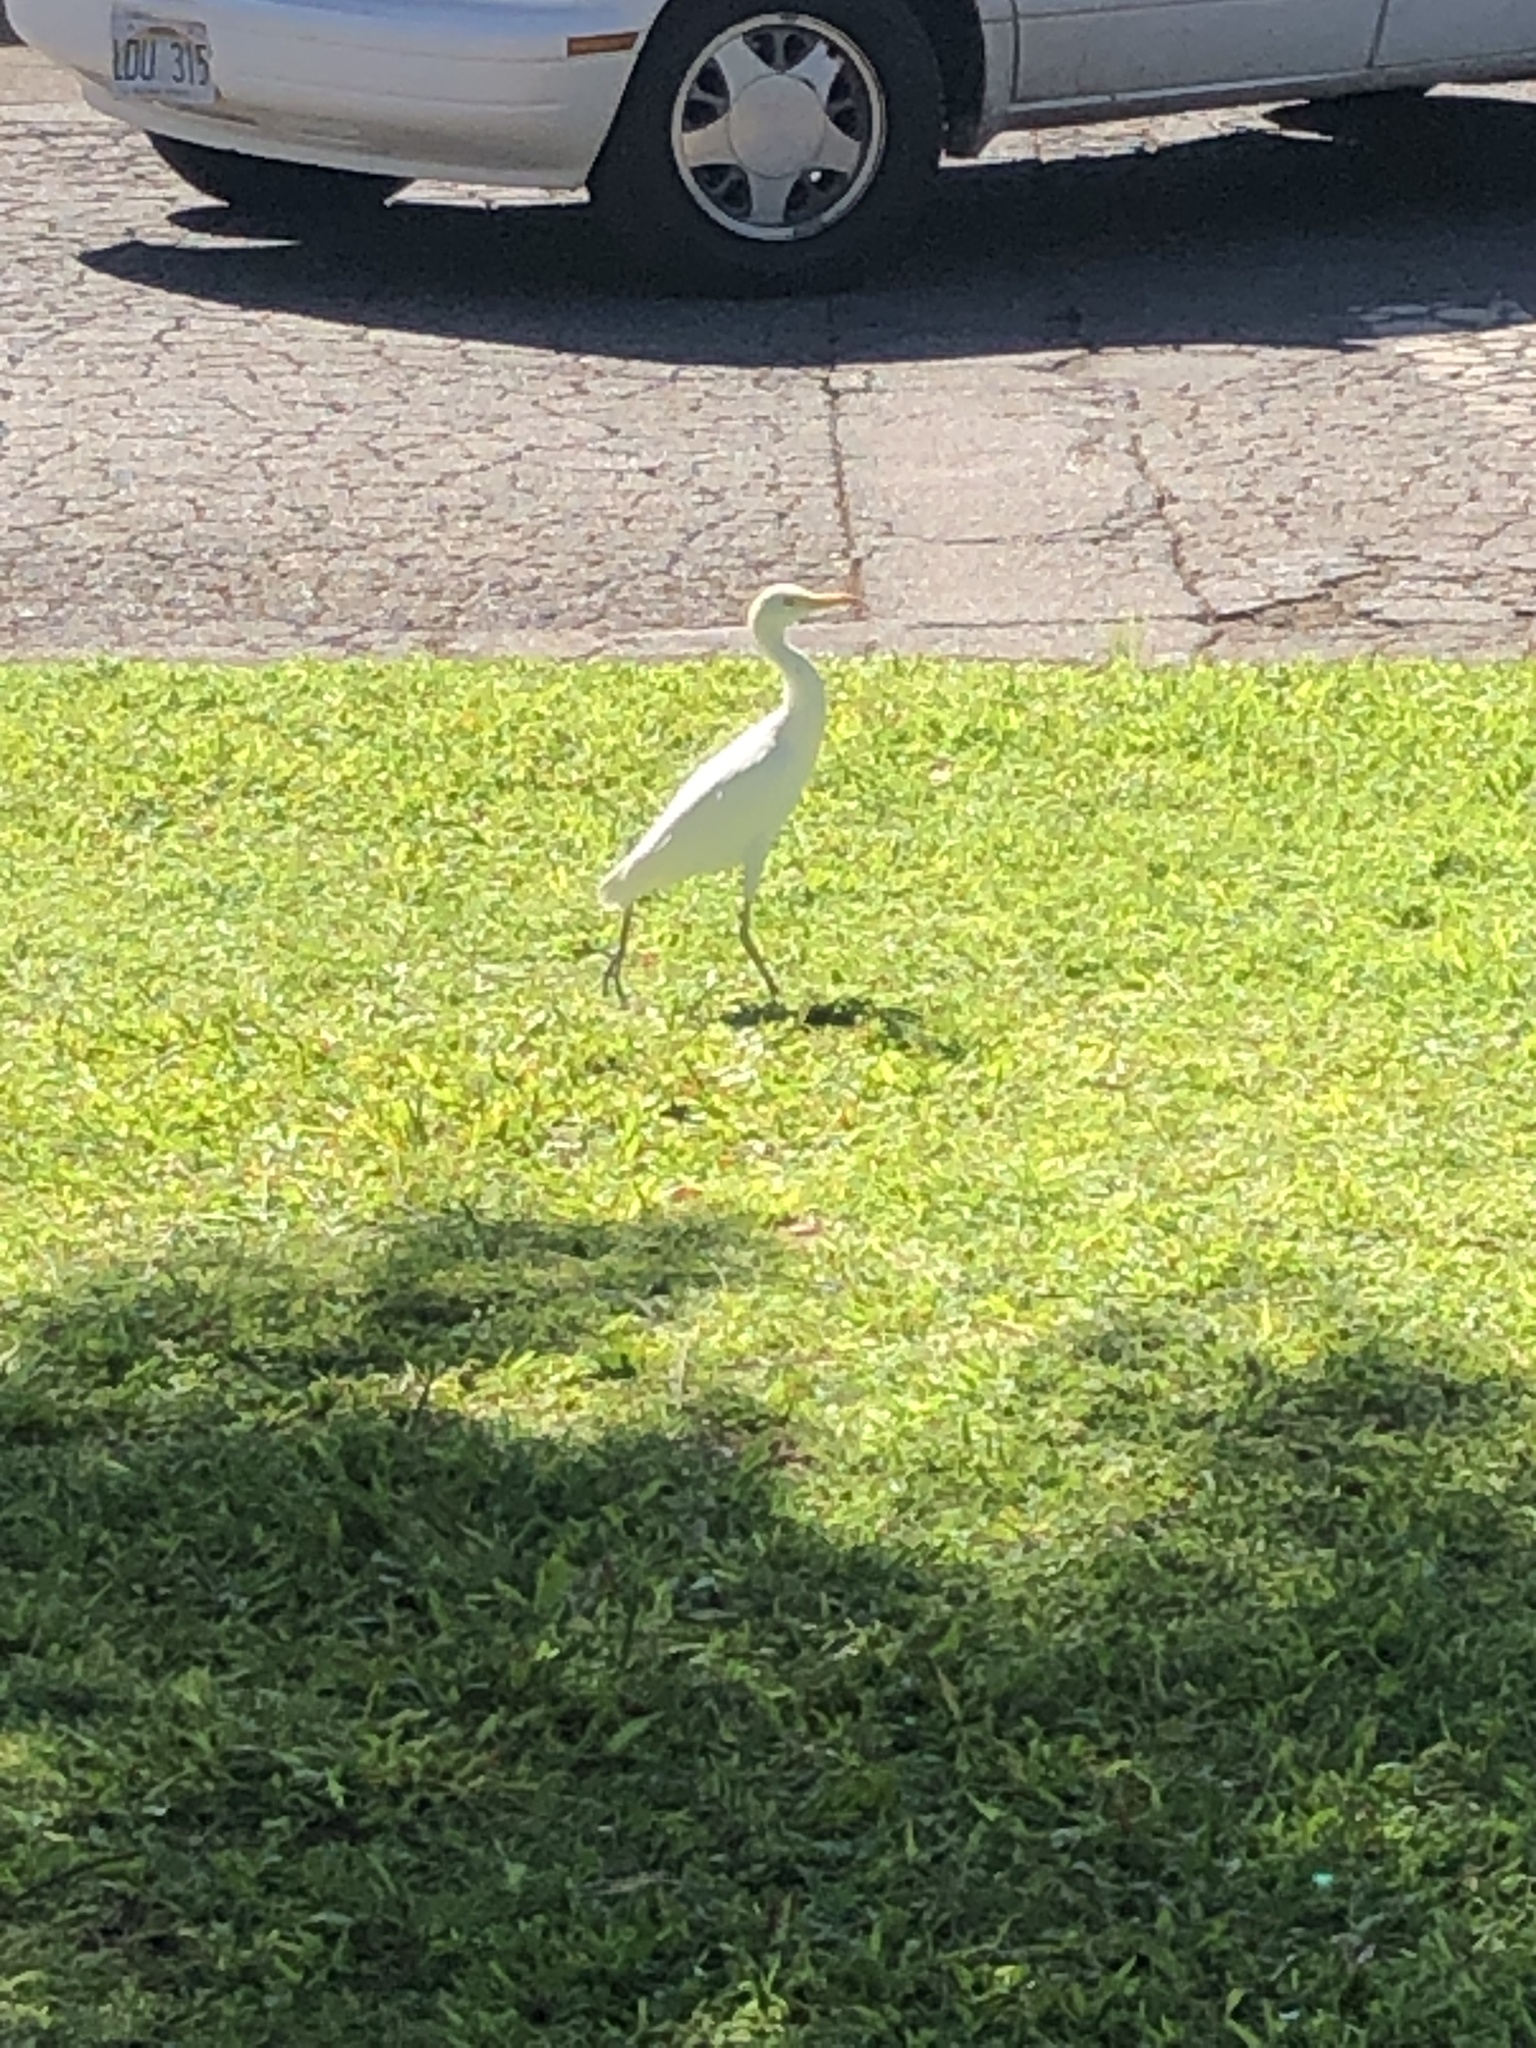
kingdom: Animalia
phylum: Chordata
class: Aves
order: Pelecaniformes
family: Ardeidae
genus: Bubulcus
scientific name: Bubulcus ibis
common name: Cattle egret
